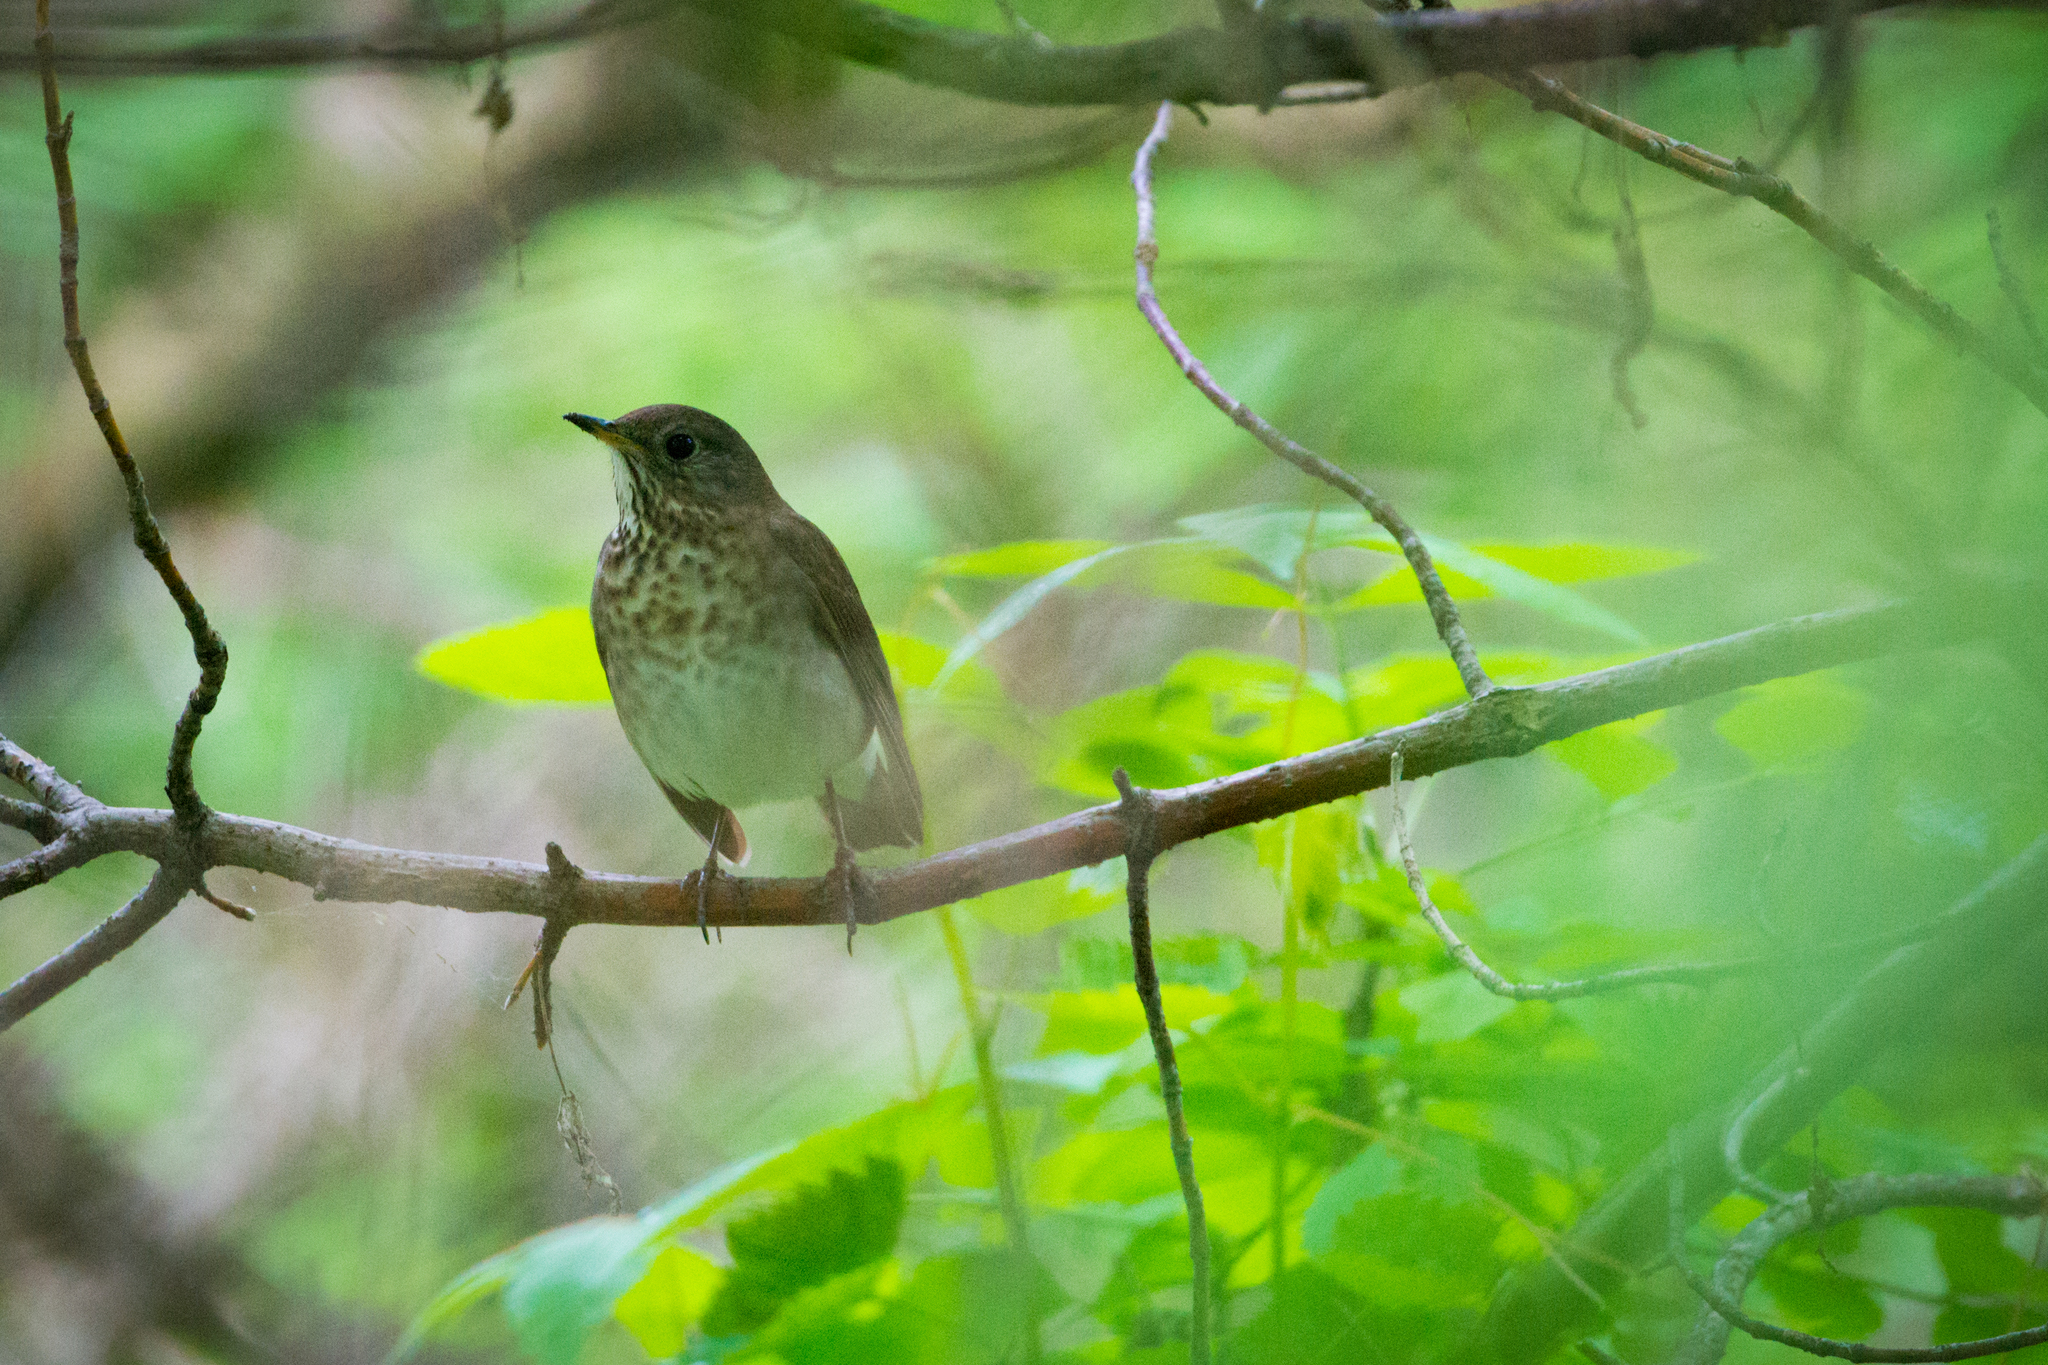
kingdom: Animalia
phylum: Chordata
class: Aves
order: Passeriformes
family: Turdidae
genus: Catharus
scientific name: Catharus minimus
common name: Grey-cheeked thrush
